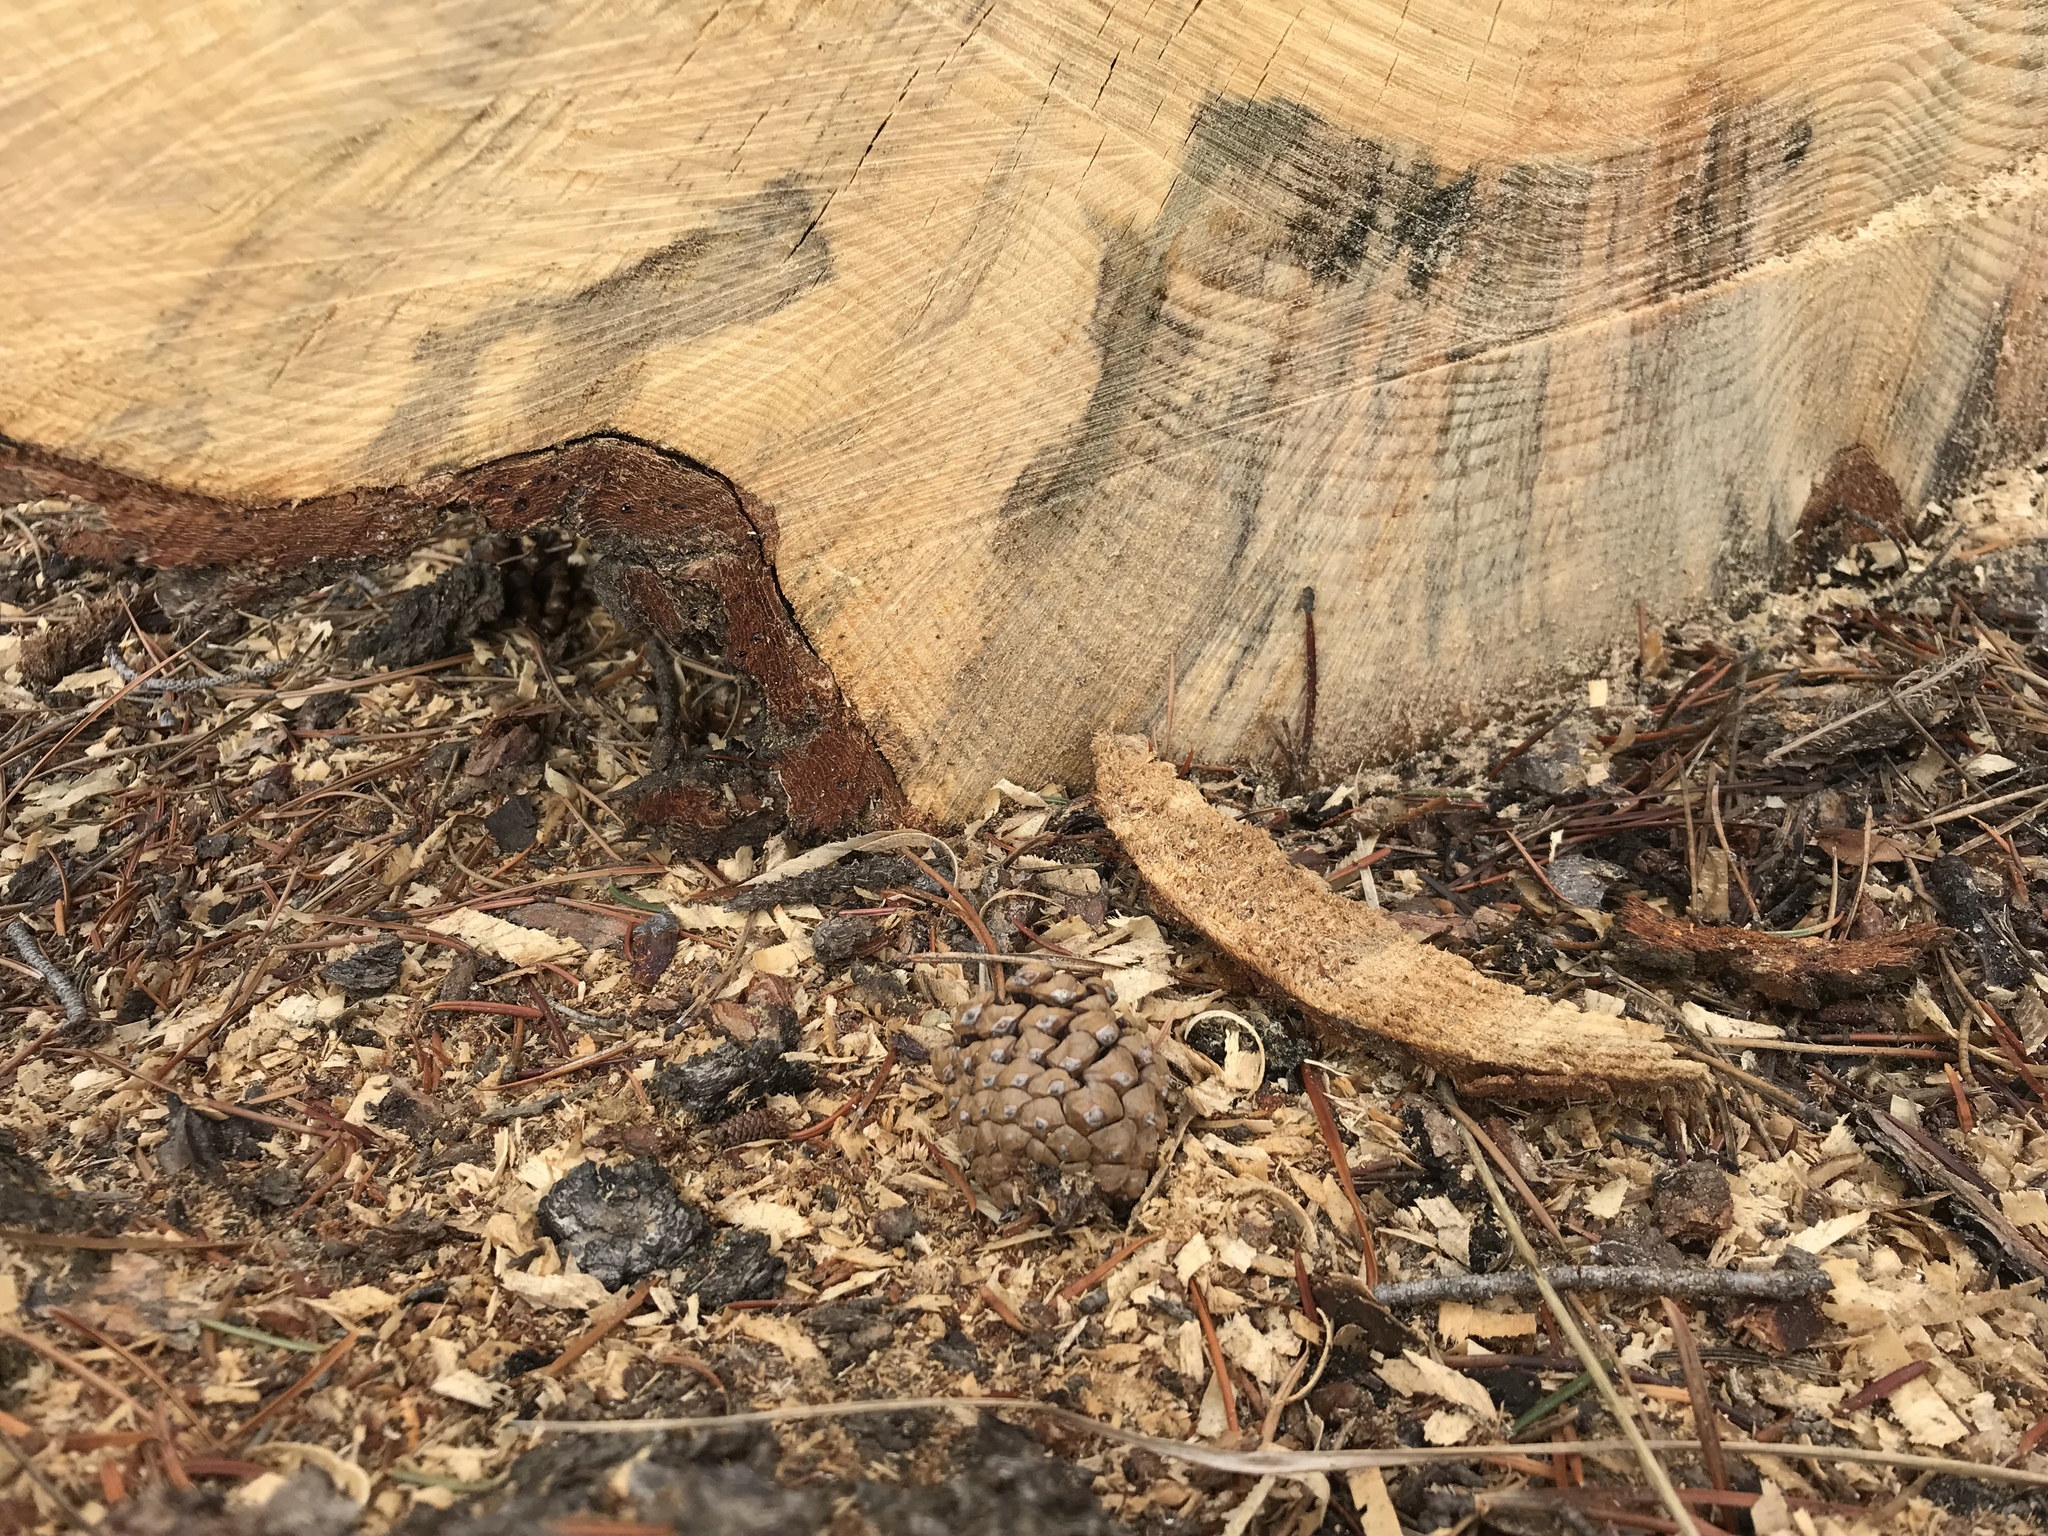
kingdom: Fungi
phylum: Ascomycota
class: Sordariomycetes
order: Microascales
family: Ceratocystidaceae
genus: Grosmannia
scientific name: Grosmannia clavigera
